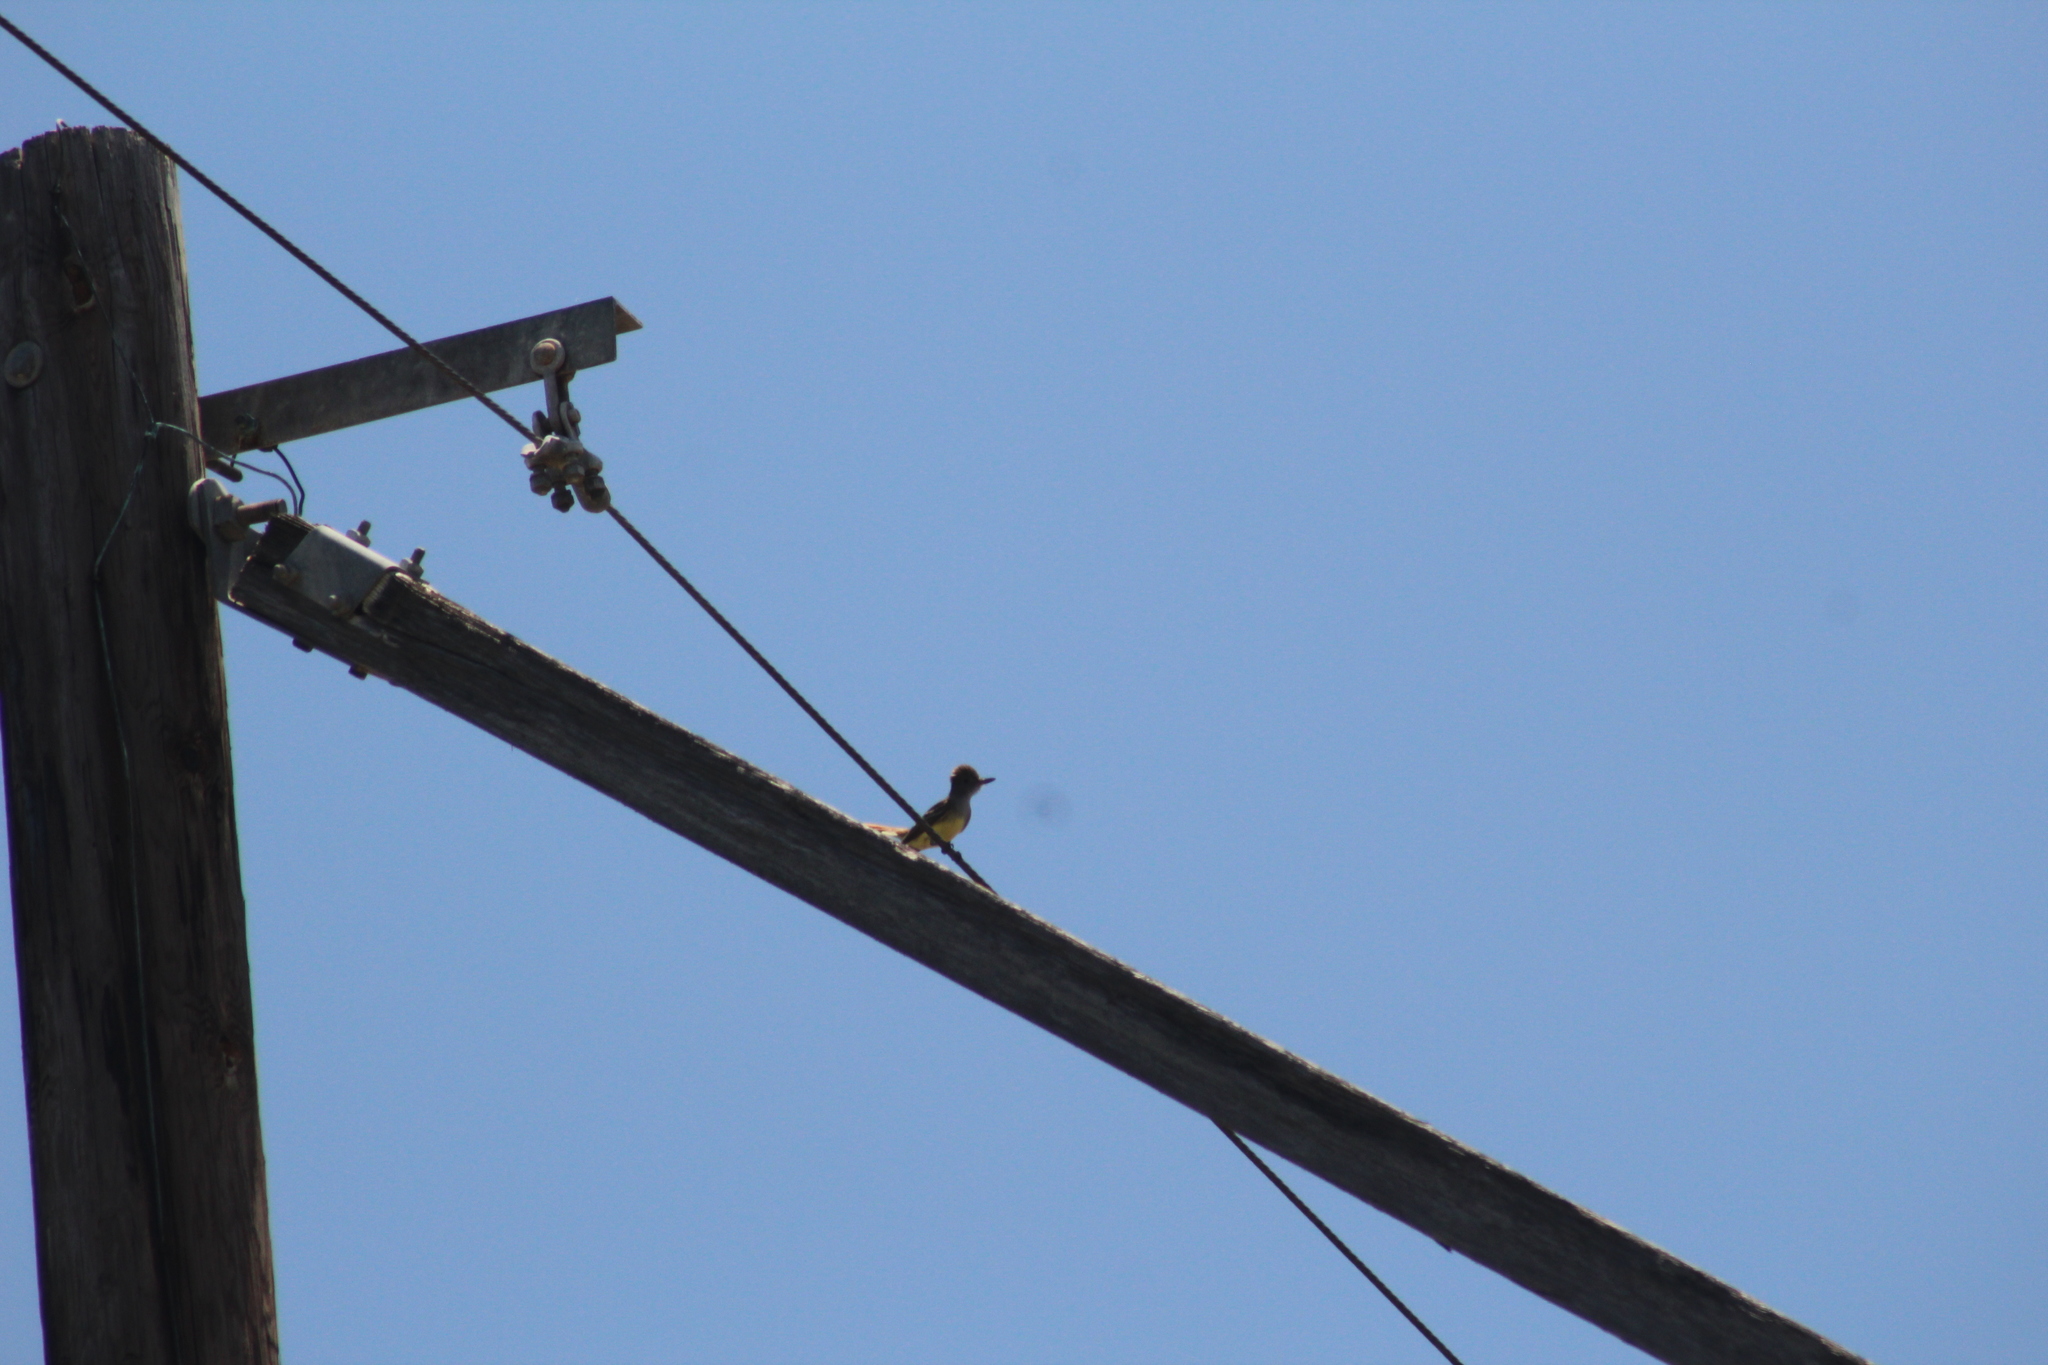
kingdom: Animalia
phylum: Chordata
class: Aves
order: Passeriformes
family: Tyrannidae
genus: Myiarchus
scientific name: Myiarchus crinitus
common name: Great crested flycatcher
